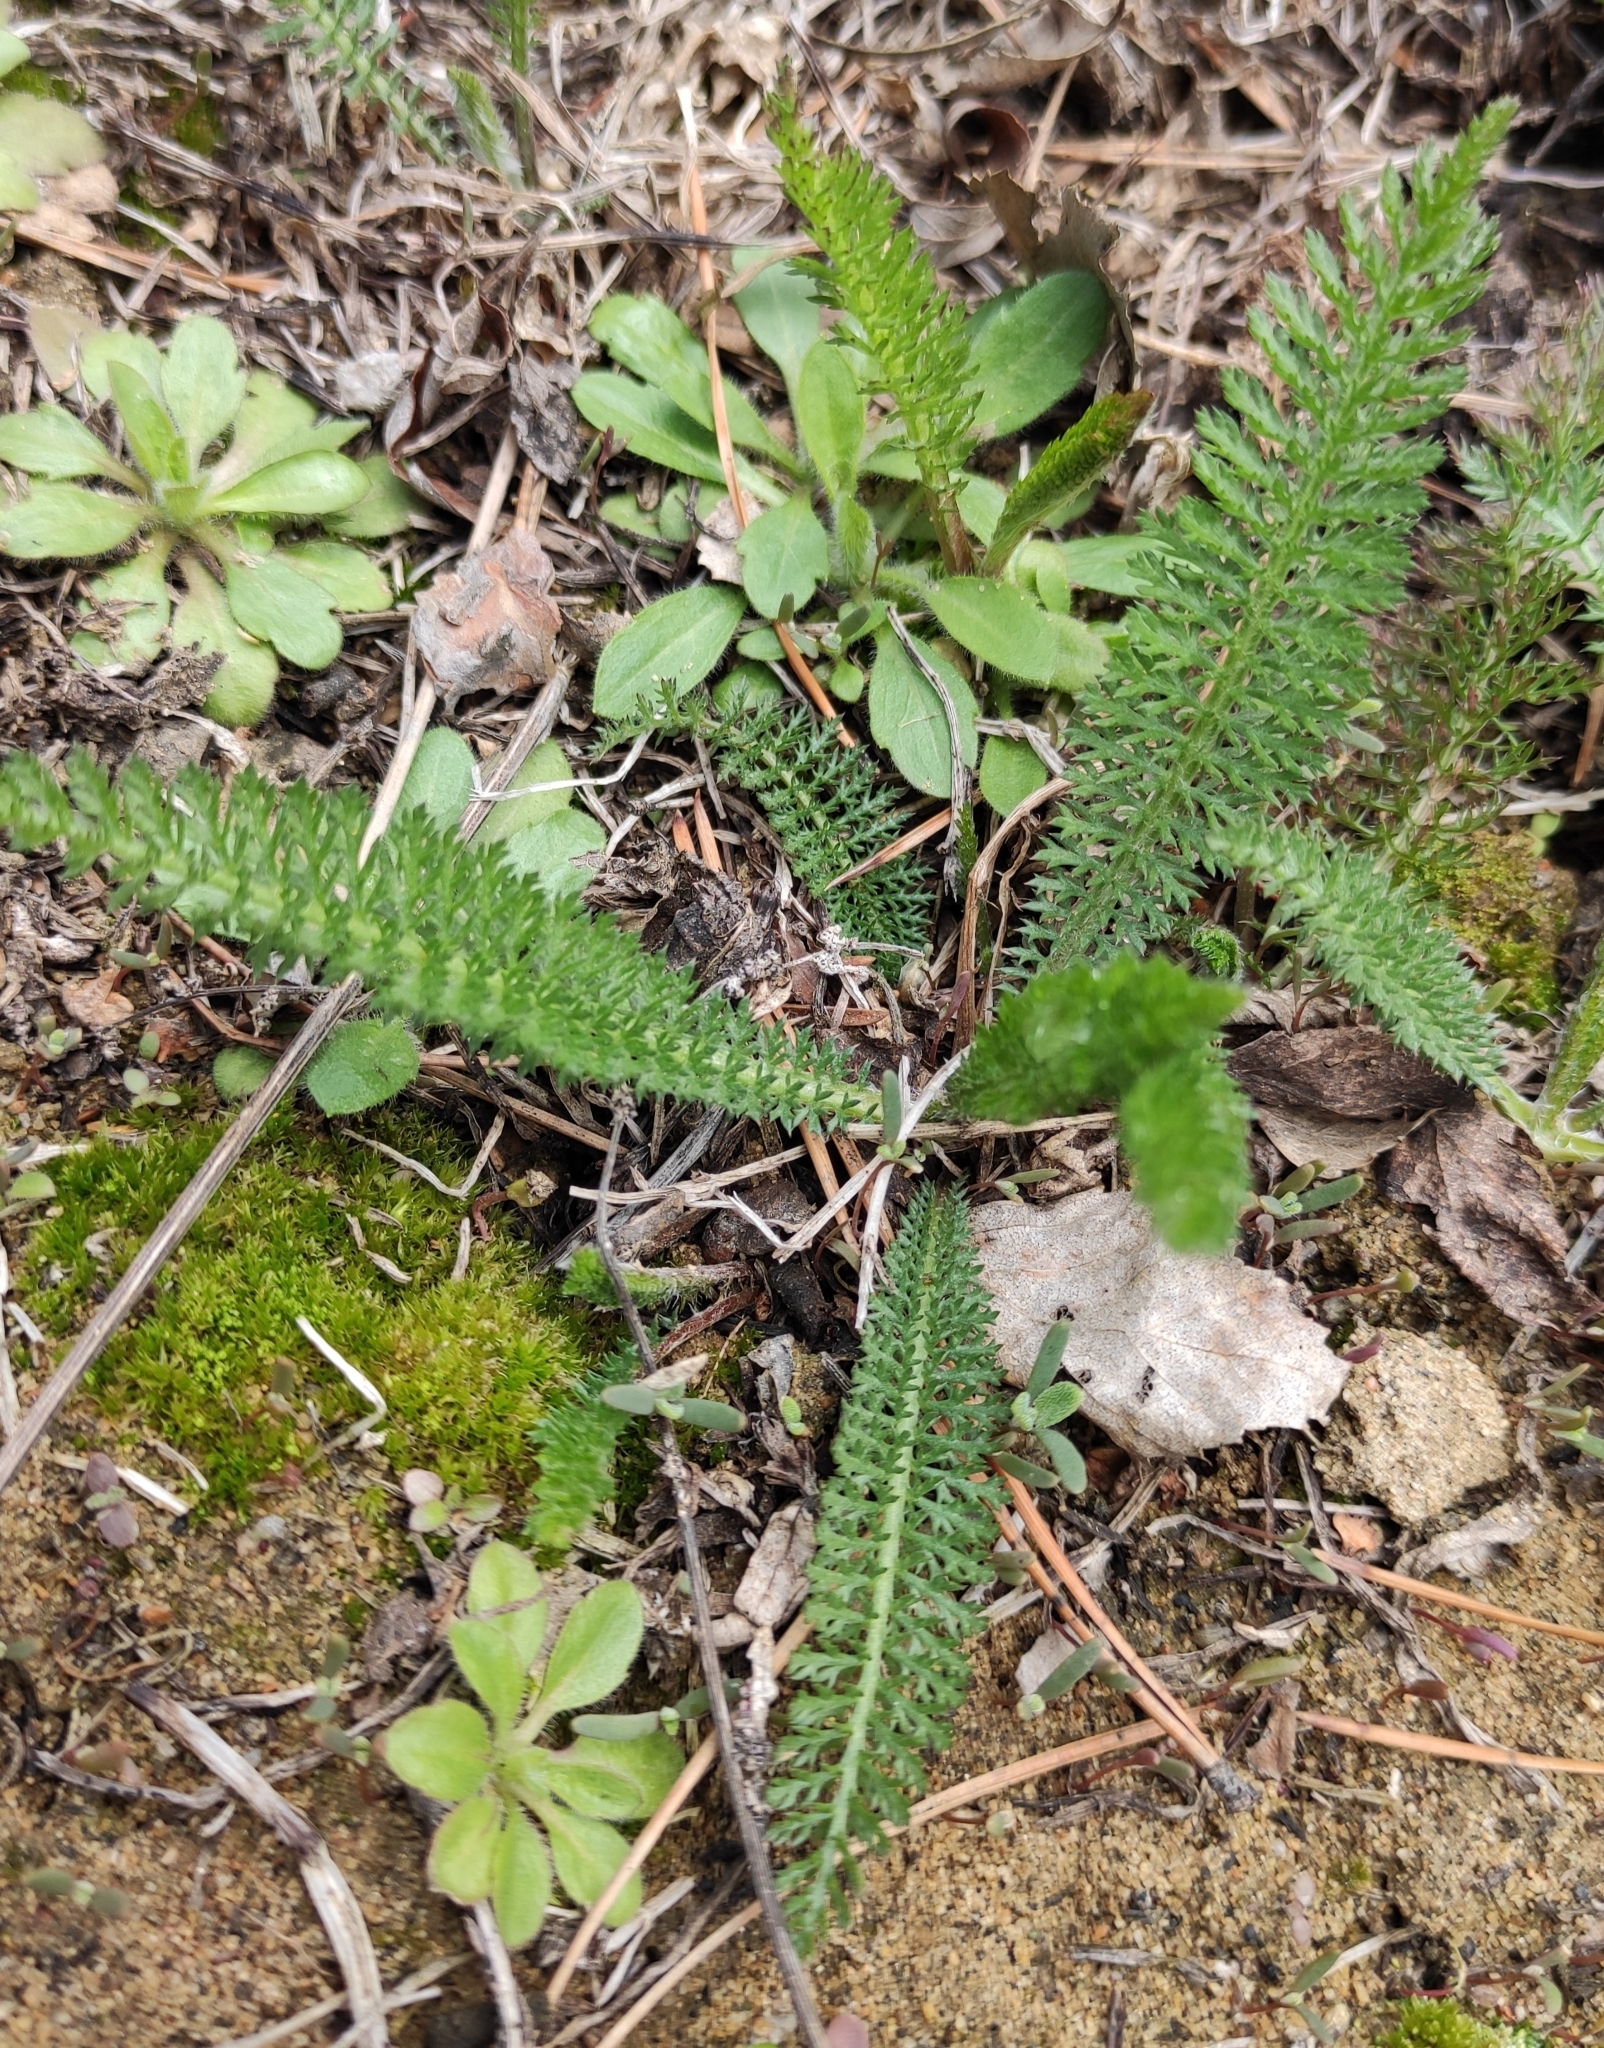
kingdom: Plantae
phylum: Tracheophyta
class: Magnoliopsida
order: Asterales
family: Asteraceae
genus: Achillea
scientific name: Achillea millefolium
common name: Yarrow
